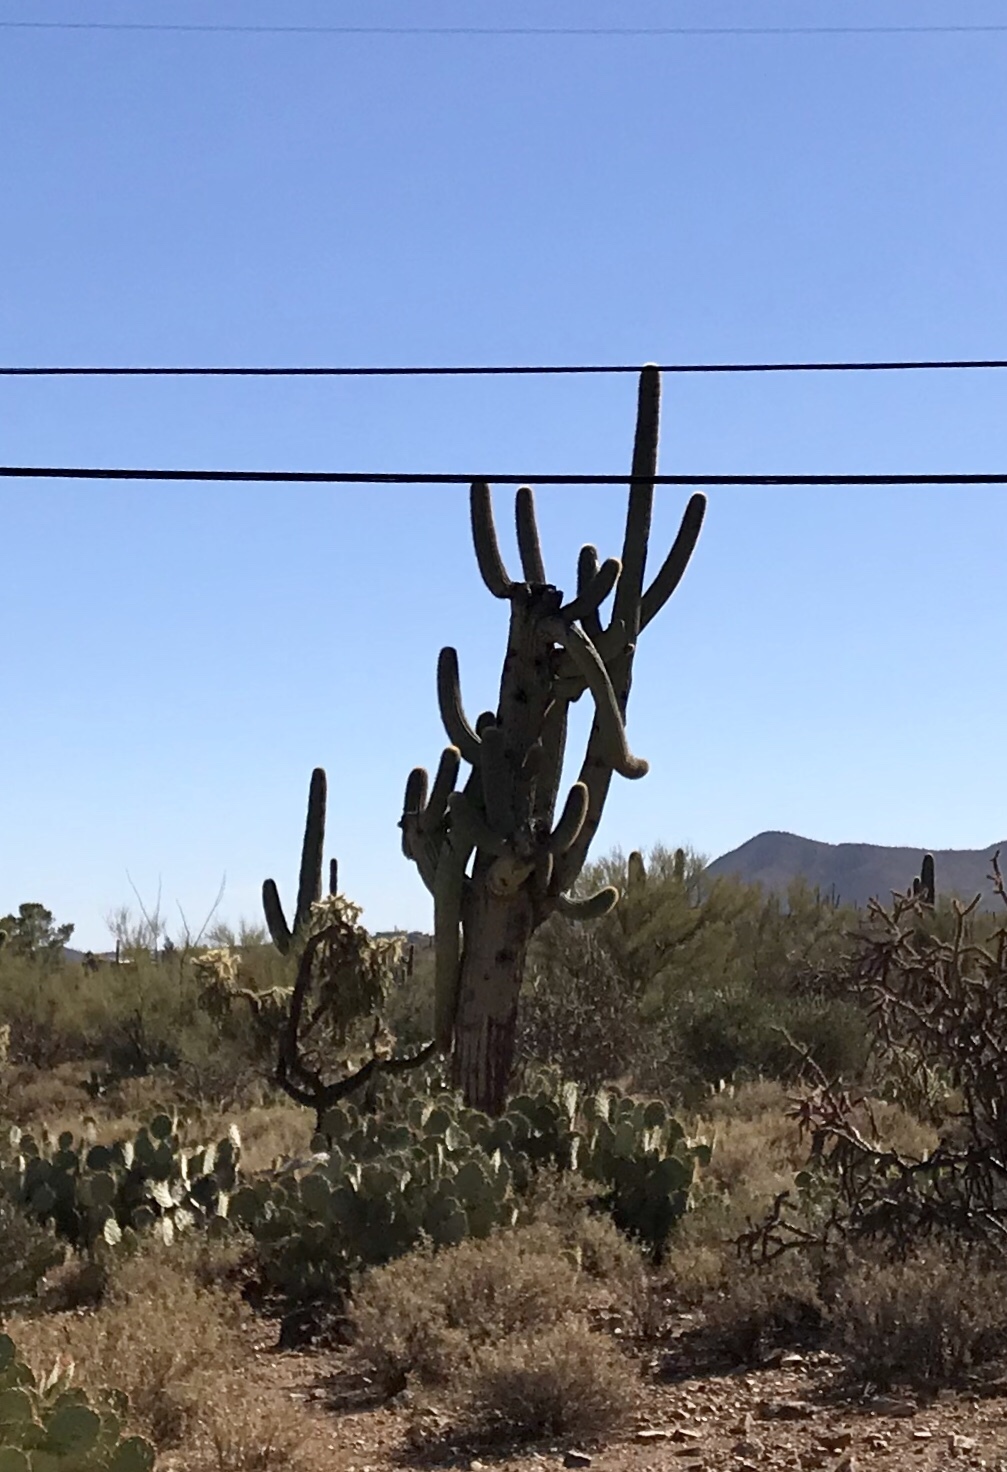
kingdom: Plantae
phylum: Tracheophyta
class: Magnoliopsida
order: Caryophyllales
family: Cactaceae
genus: Carnegiea
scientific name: Carnegiea gigantea
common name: Saguaro
